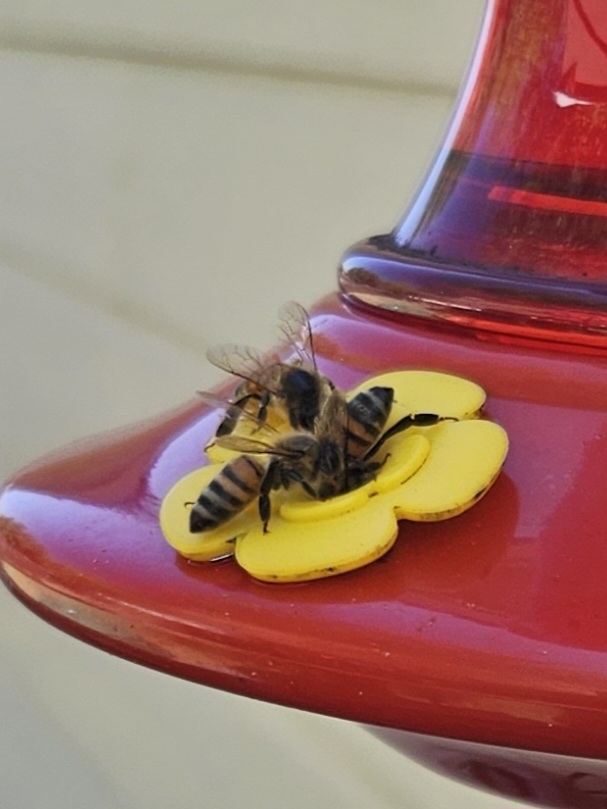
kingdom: Animalia
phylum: Arthropoda
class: Insecta
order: Hymenoptera
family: Apidae
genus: Apis
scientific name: Apis mellifera
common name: Honey bee
